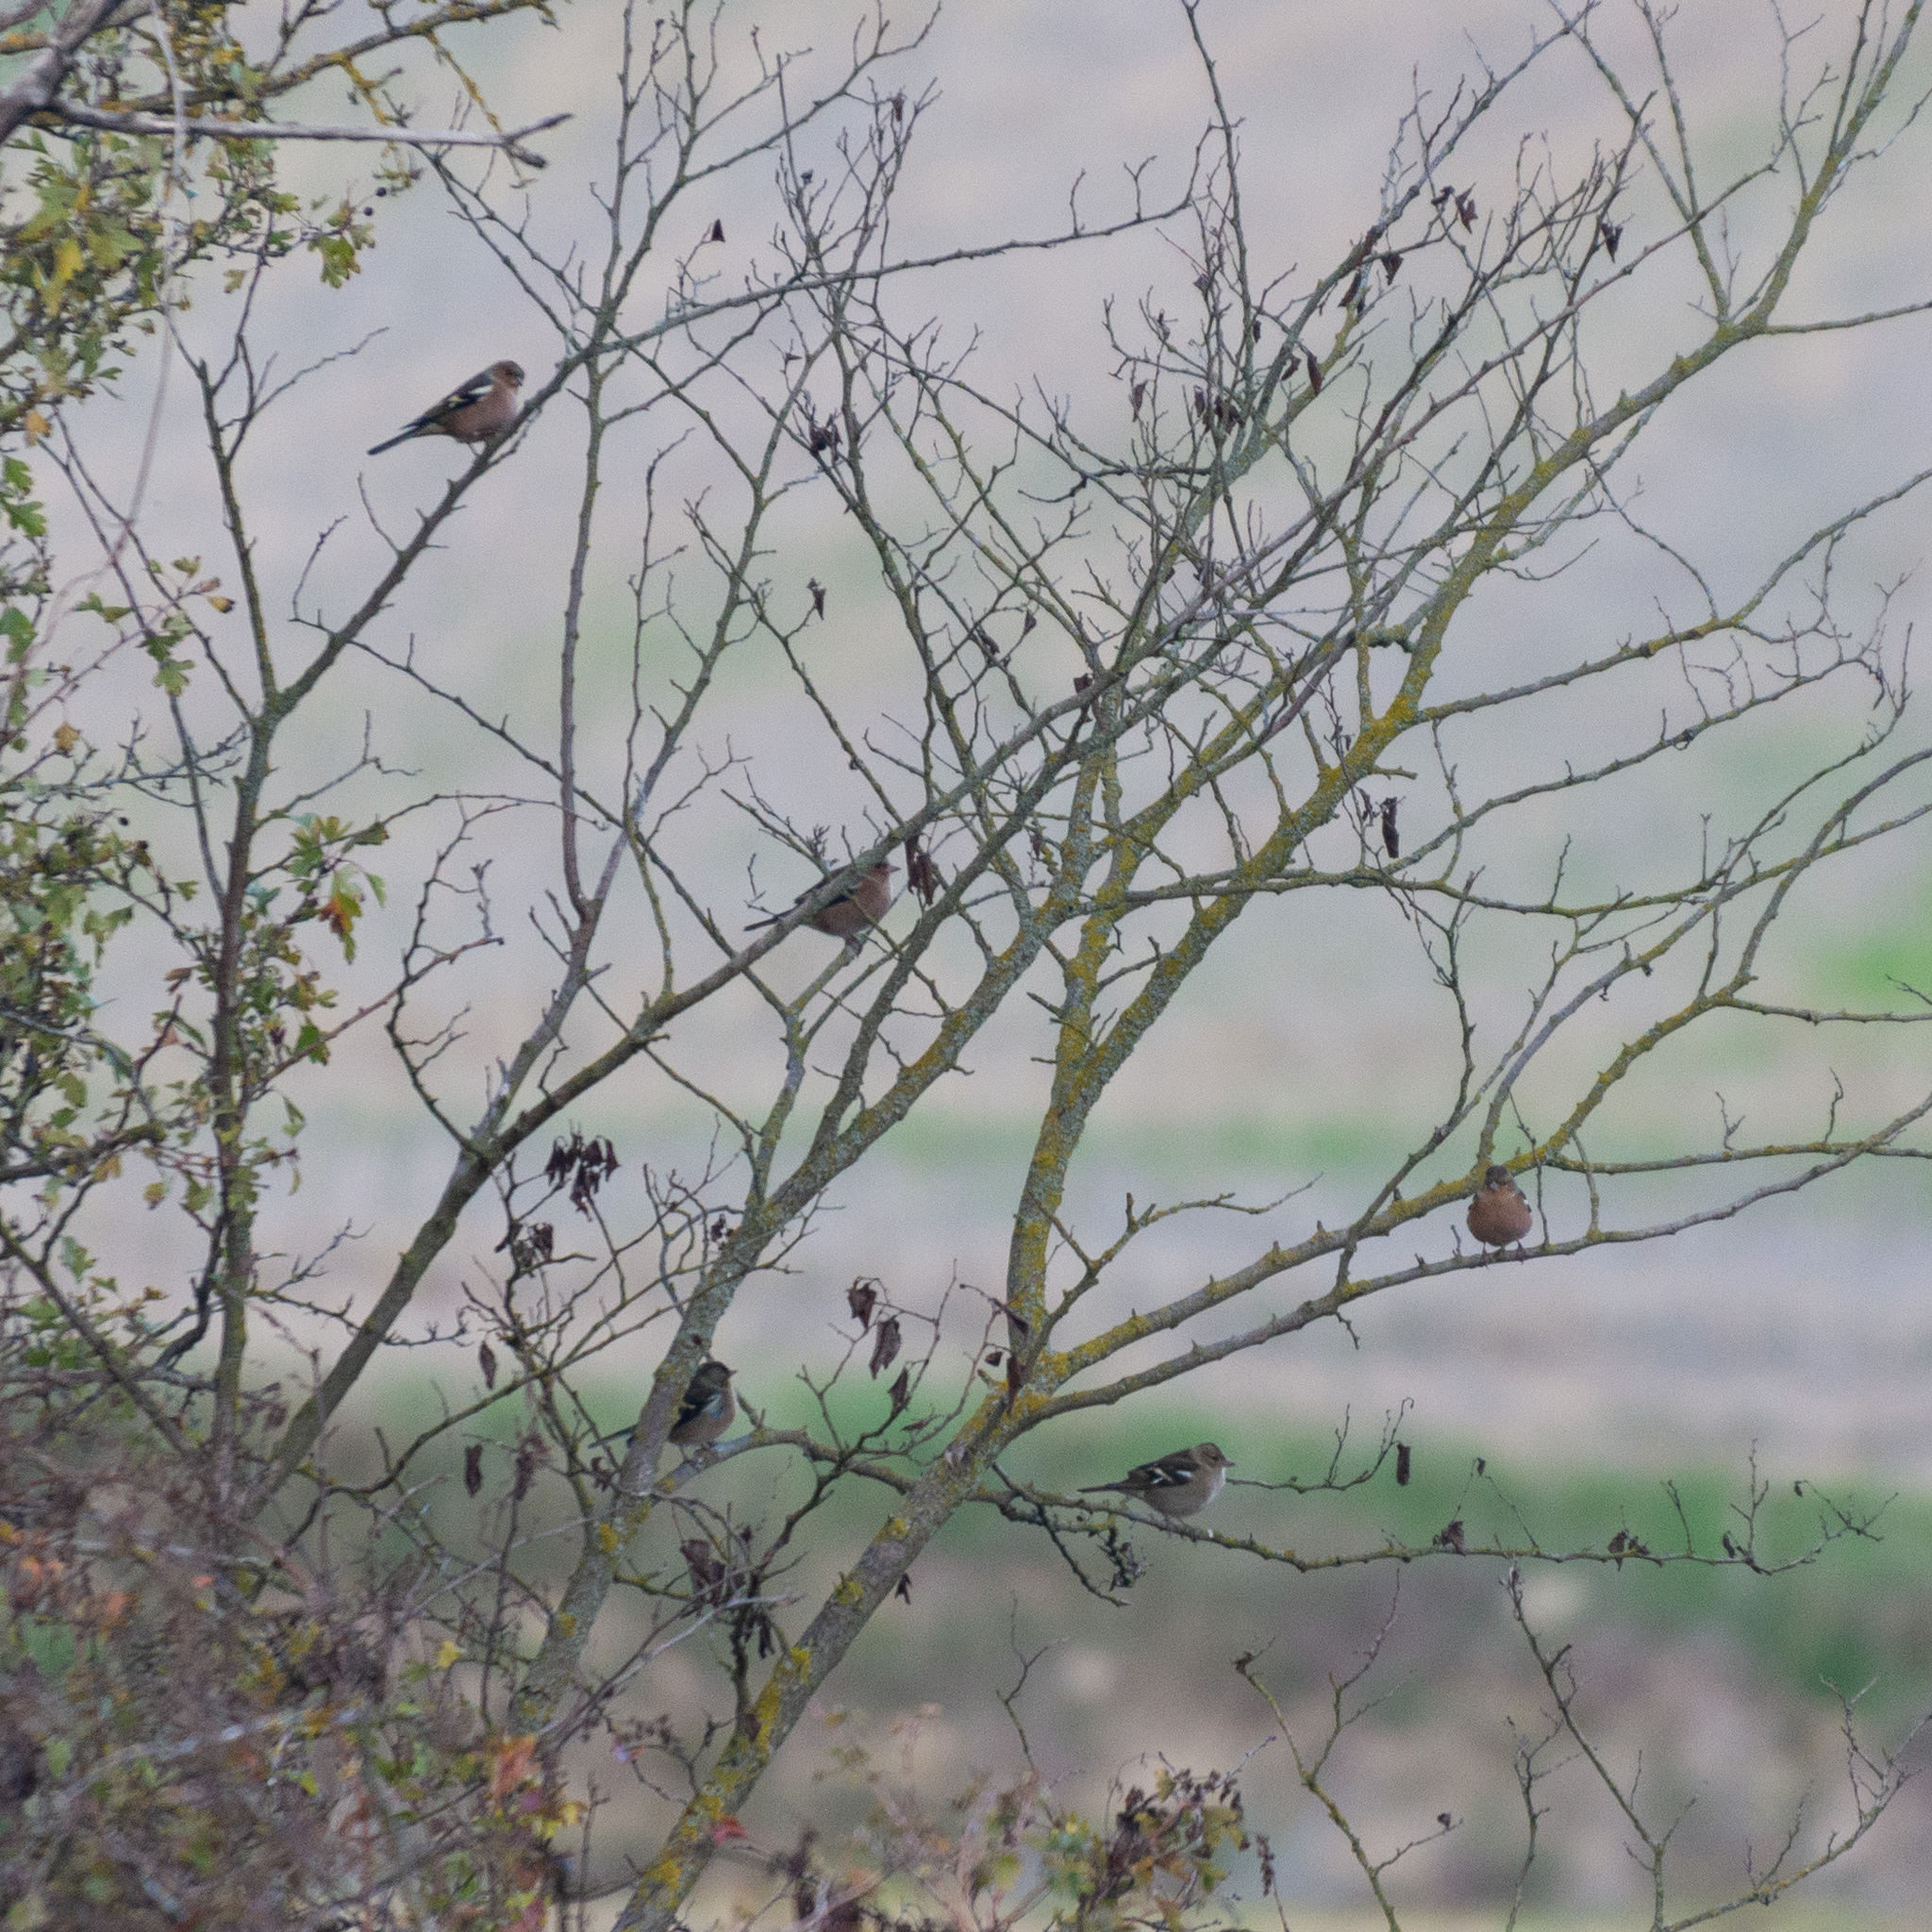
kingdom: Animalia
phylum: Chordata
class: Aves
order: Passeriformes
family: Fringillidae
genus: Fringilla
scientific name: Fringilla coelebs
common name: Common chaffinch
